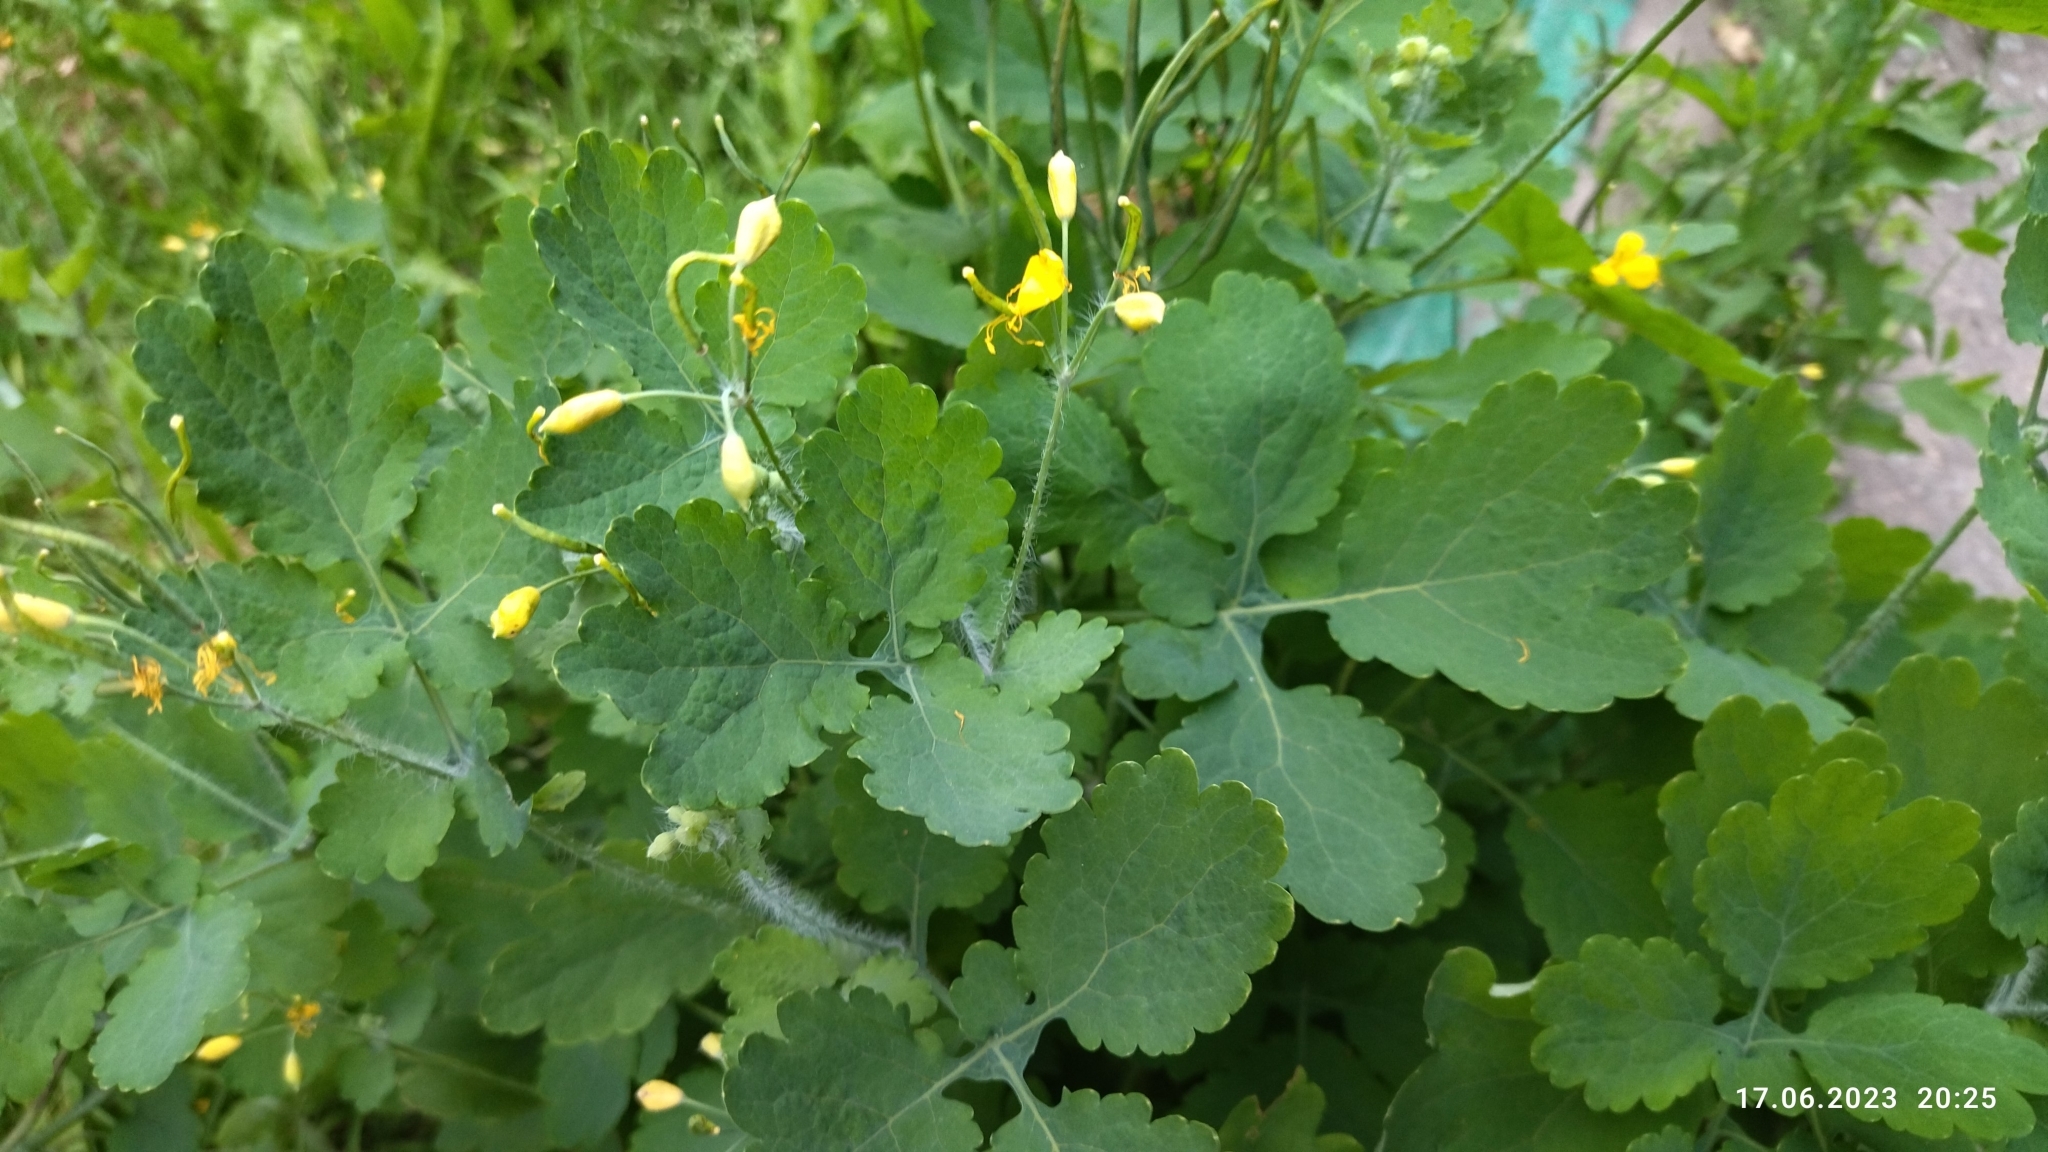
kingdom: Plantae
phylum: Tracheophyta
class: Magnoliopsida
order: Ranunculales
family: Papaveraceae
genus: Chelidonium
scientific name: Chelidonium majus
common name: Greater celandine
